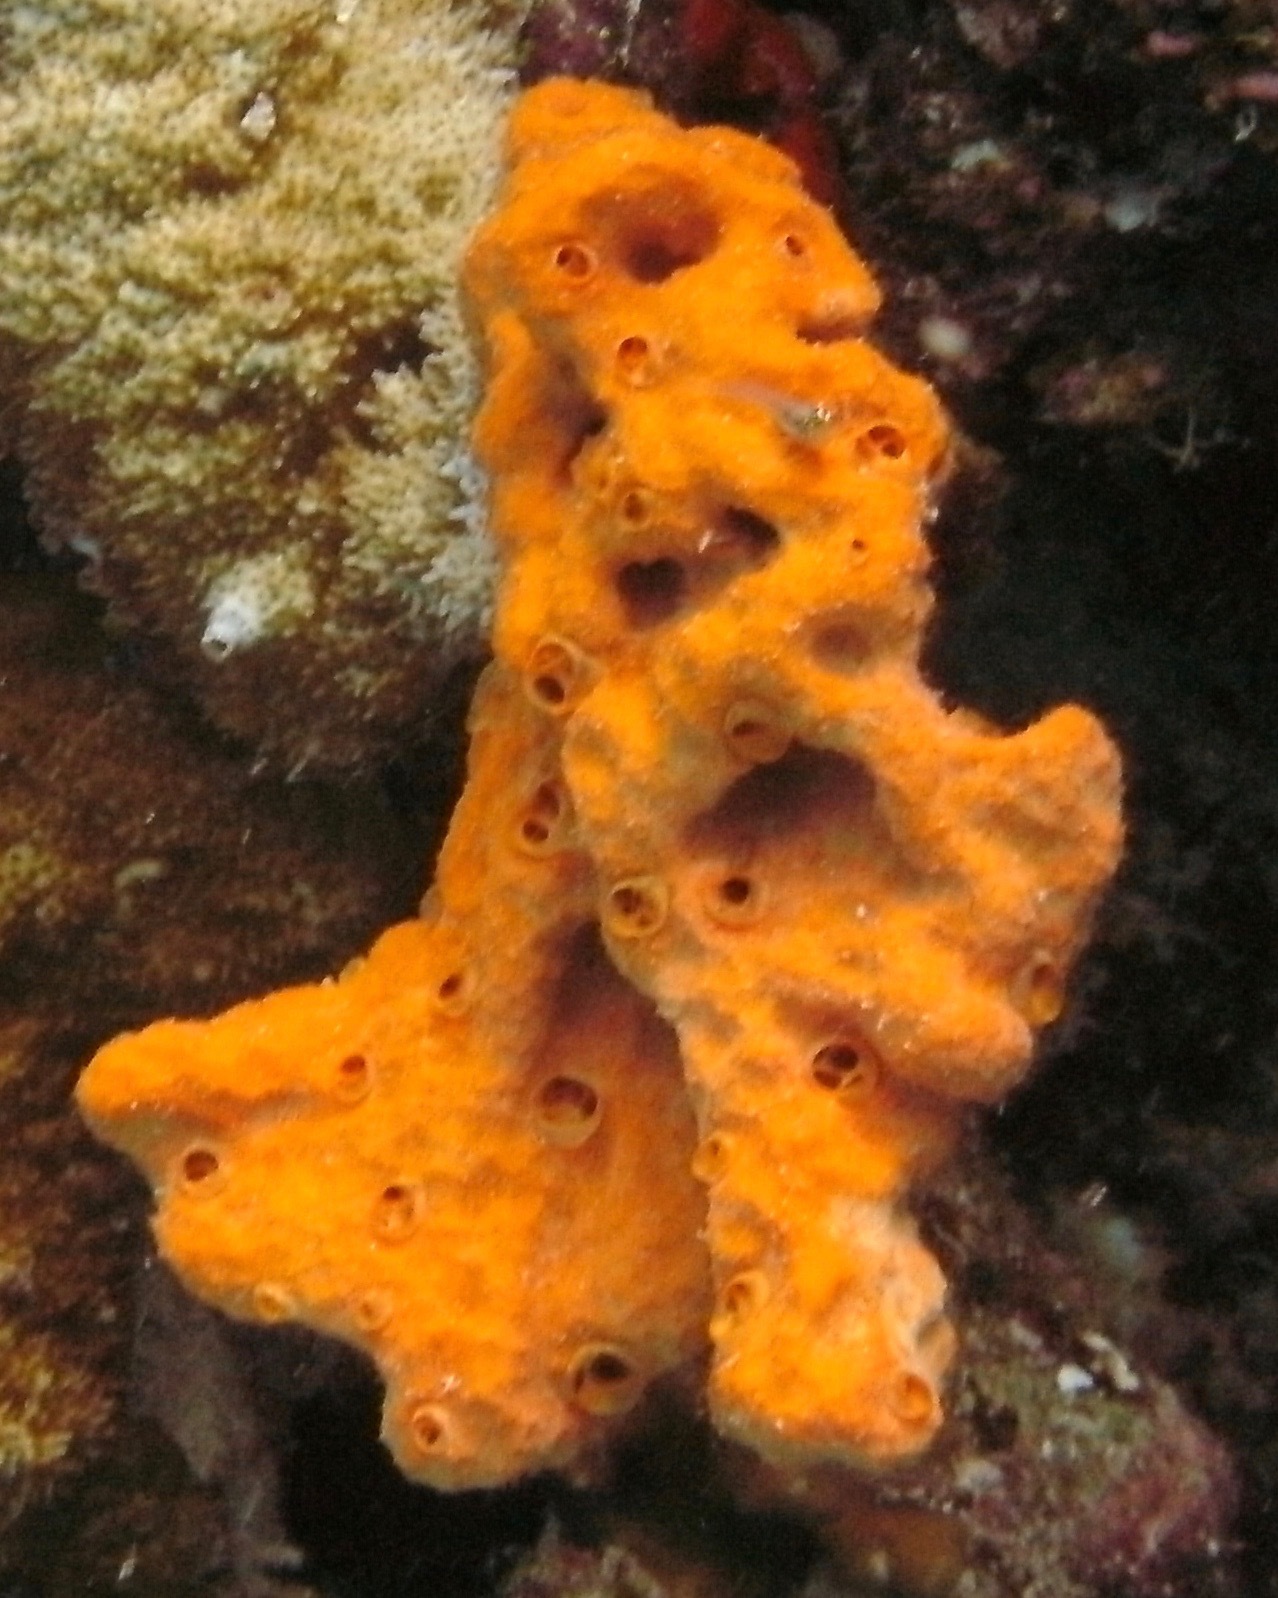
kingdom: Animalia
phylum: Porifera
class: Demospongiae
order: Scopalinida
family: Scopalinidae
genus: Stylissa
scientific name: Stylissa massa
